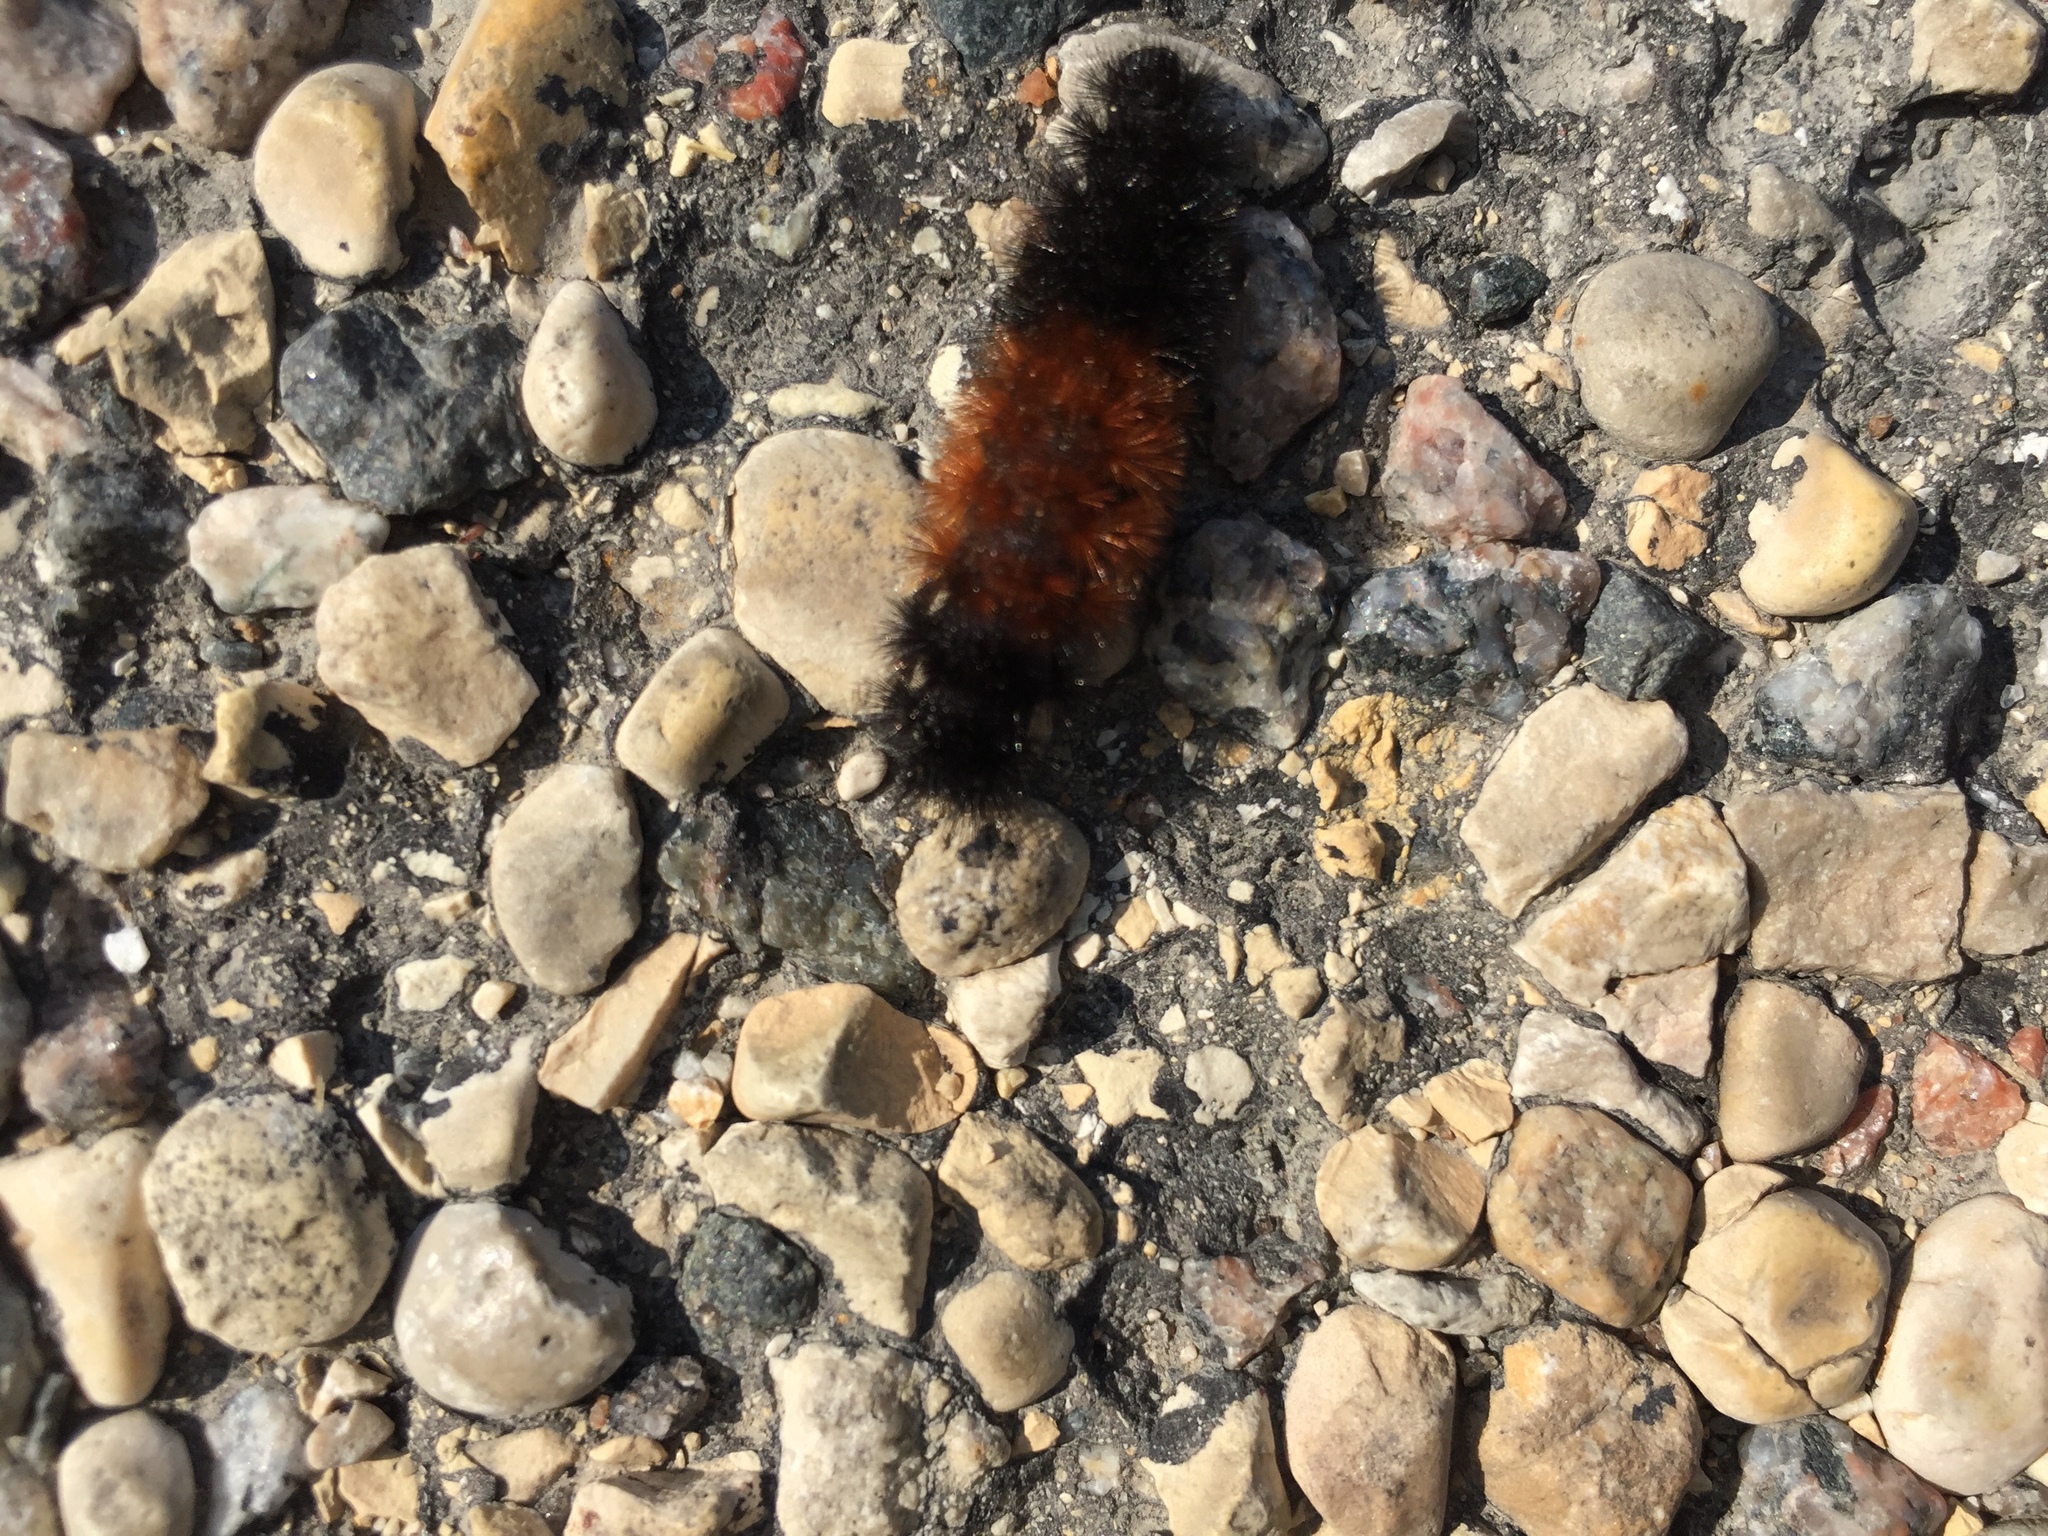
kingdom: Animalia
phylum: Arthropoda
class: Insecta
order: Lepidoptera
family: Erebidae
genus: Pyrrharctia
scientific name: Pyrrharctia isabella
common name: Isabella tiger moth
